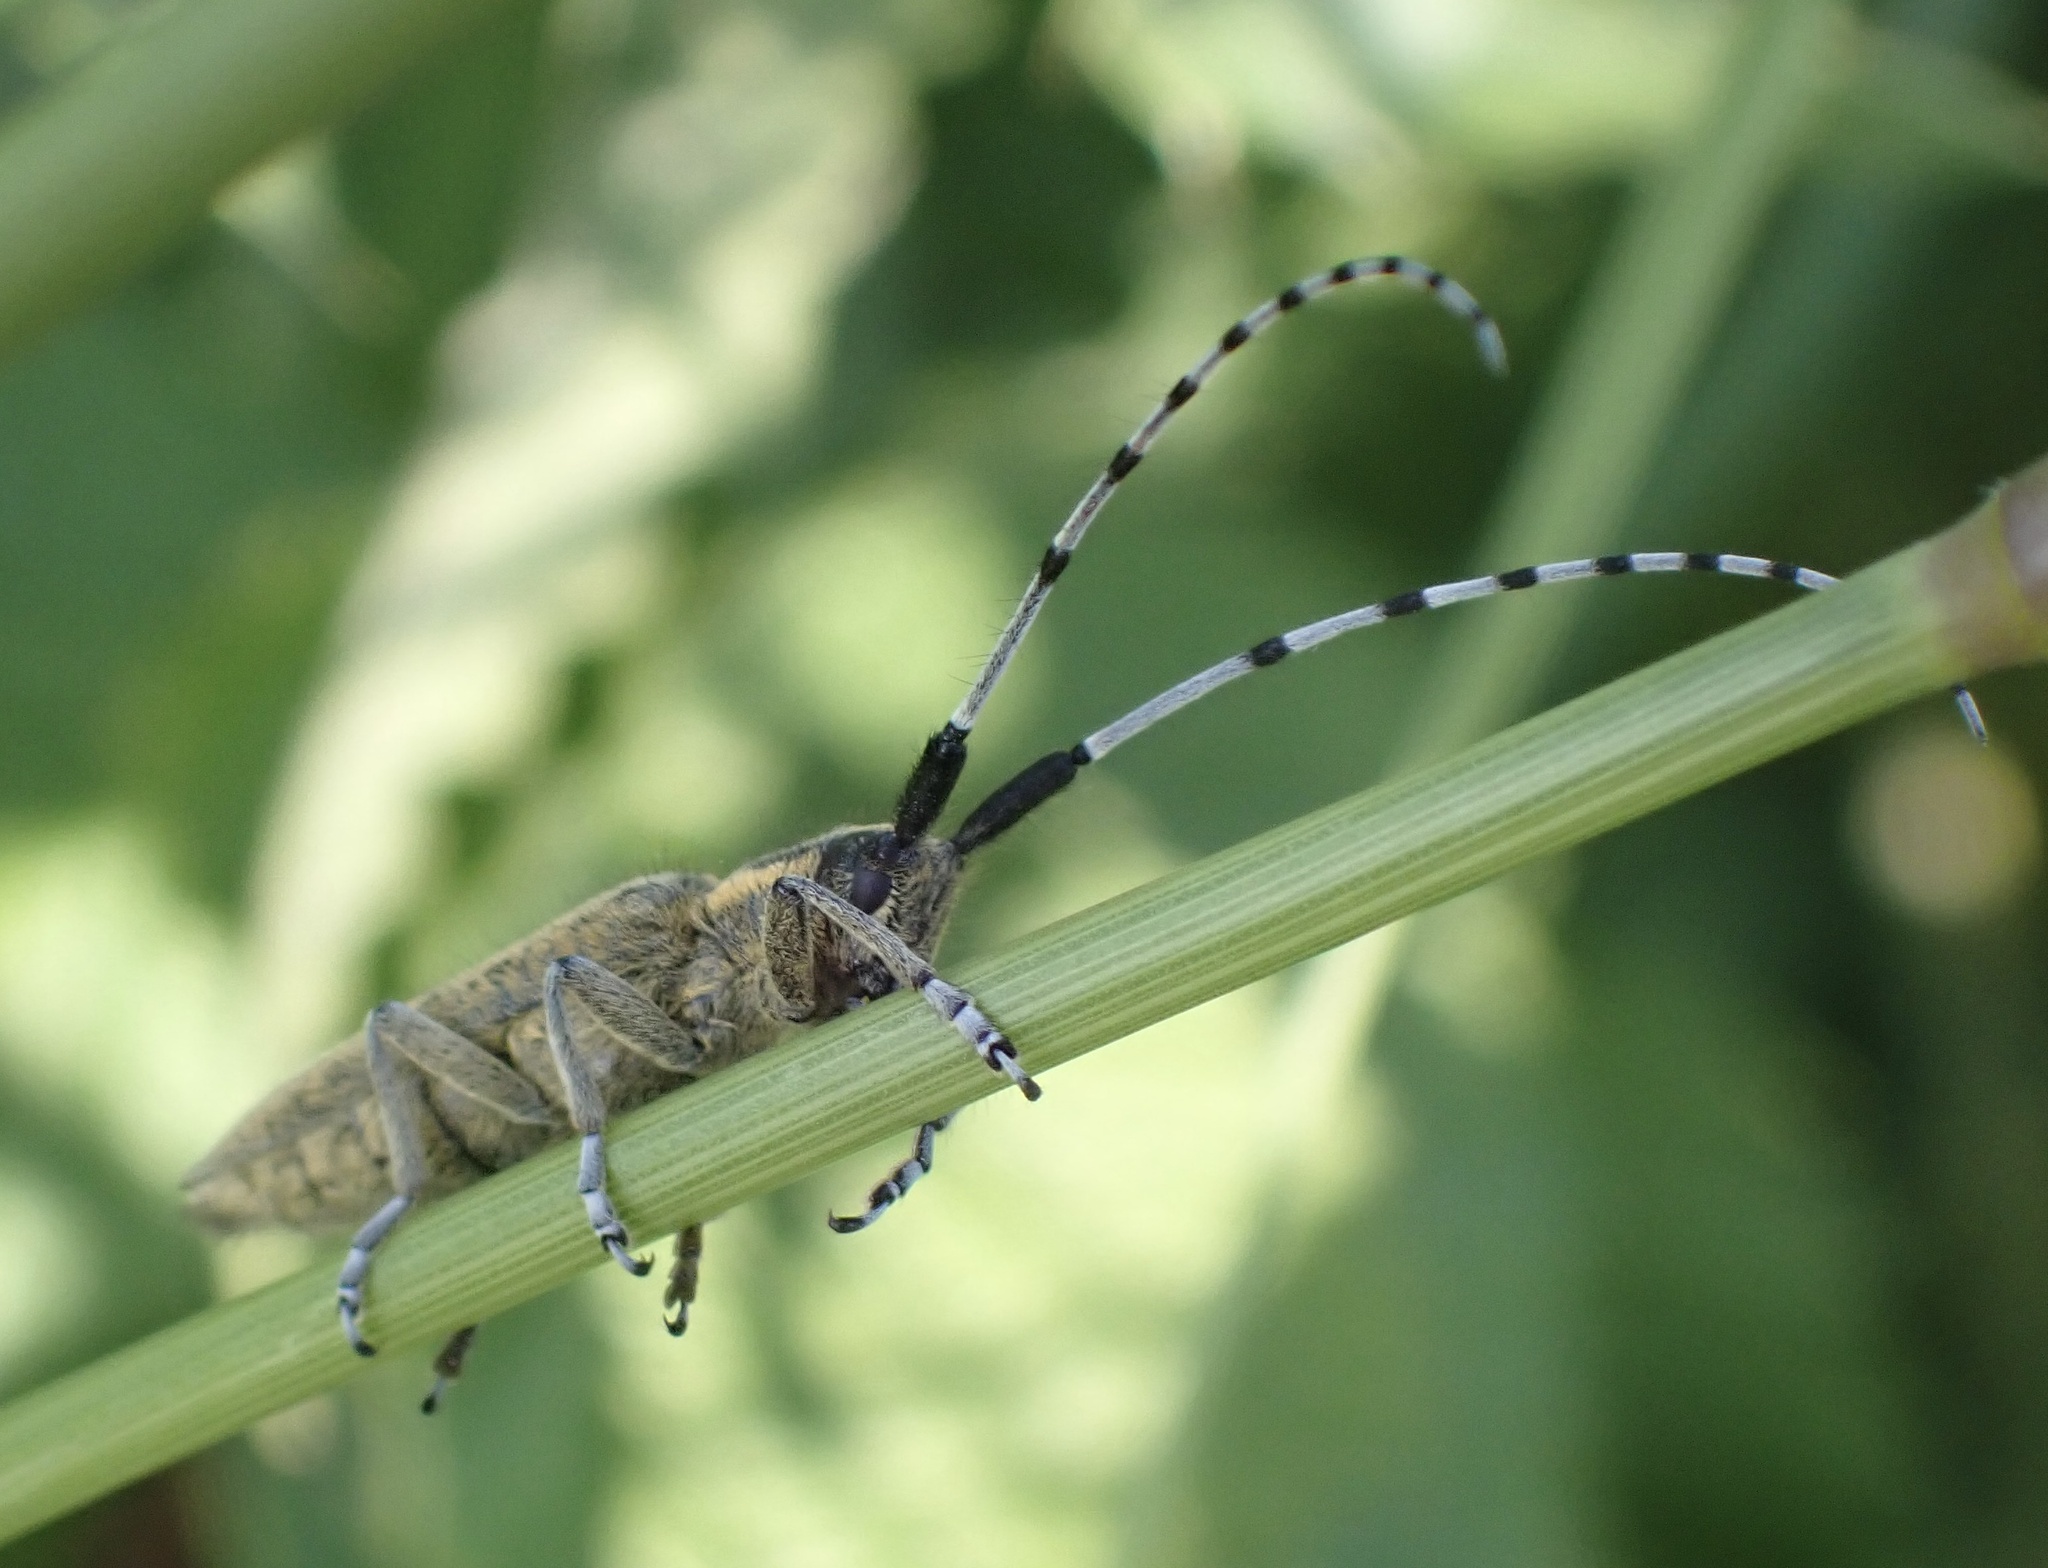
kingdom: Animalia
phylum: Arthropoda
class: Insecta
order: Coleoptera
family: Cerambycidae
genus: Agapanthia
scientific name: Agapanthia villosoviridescens
